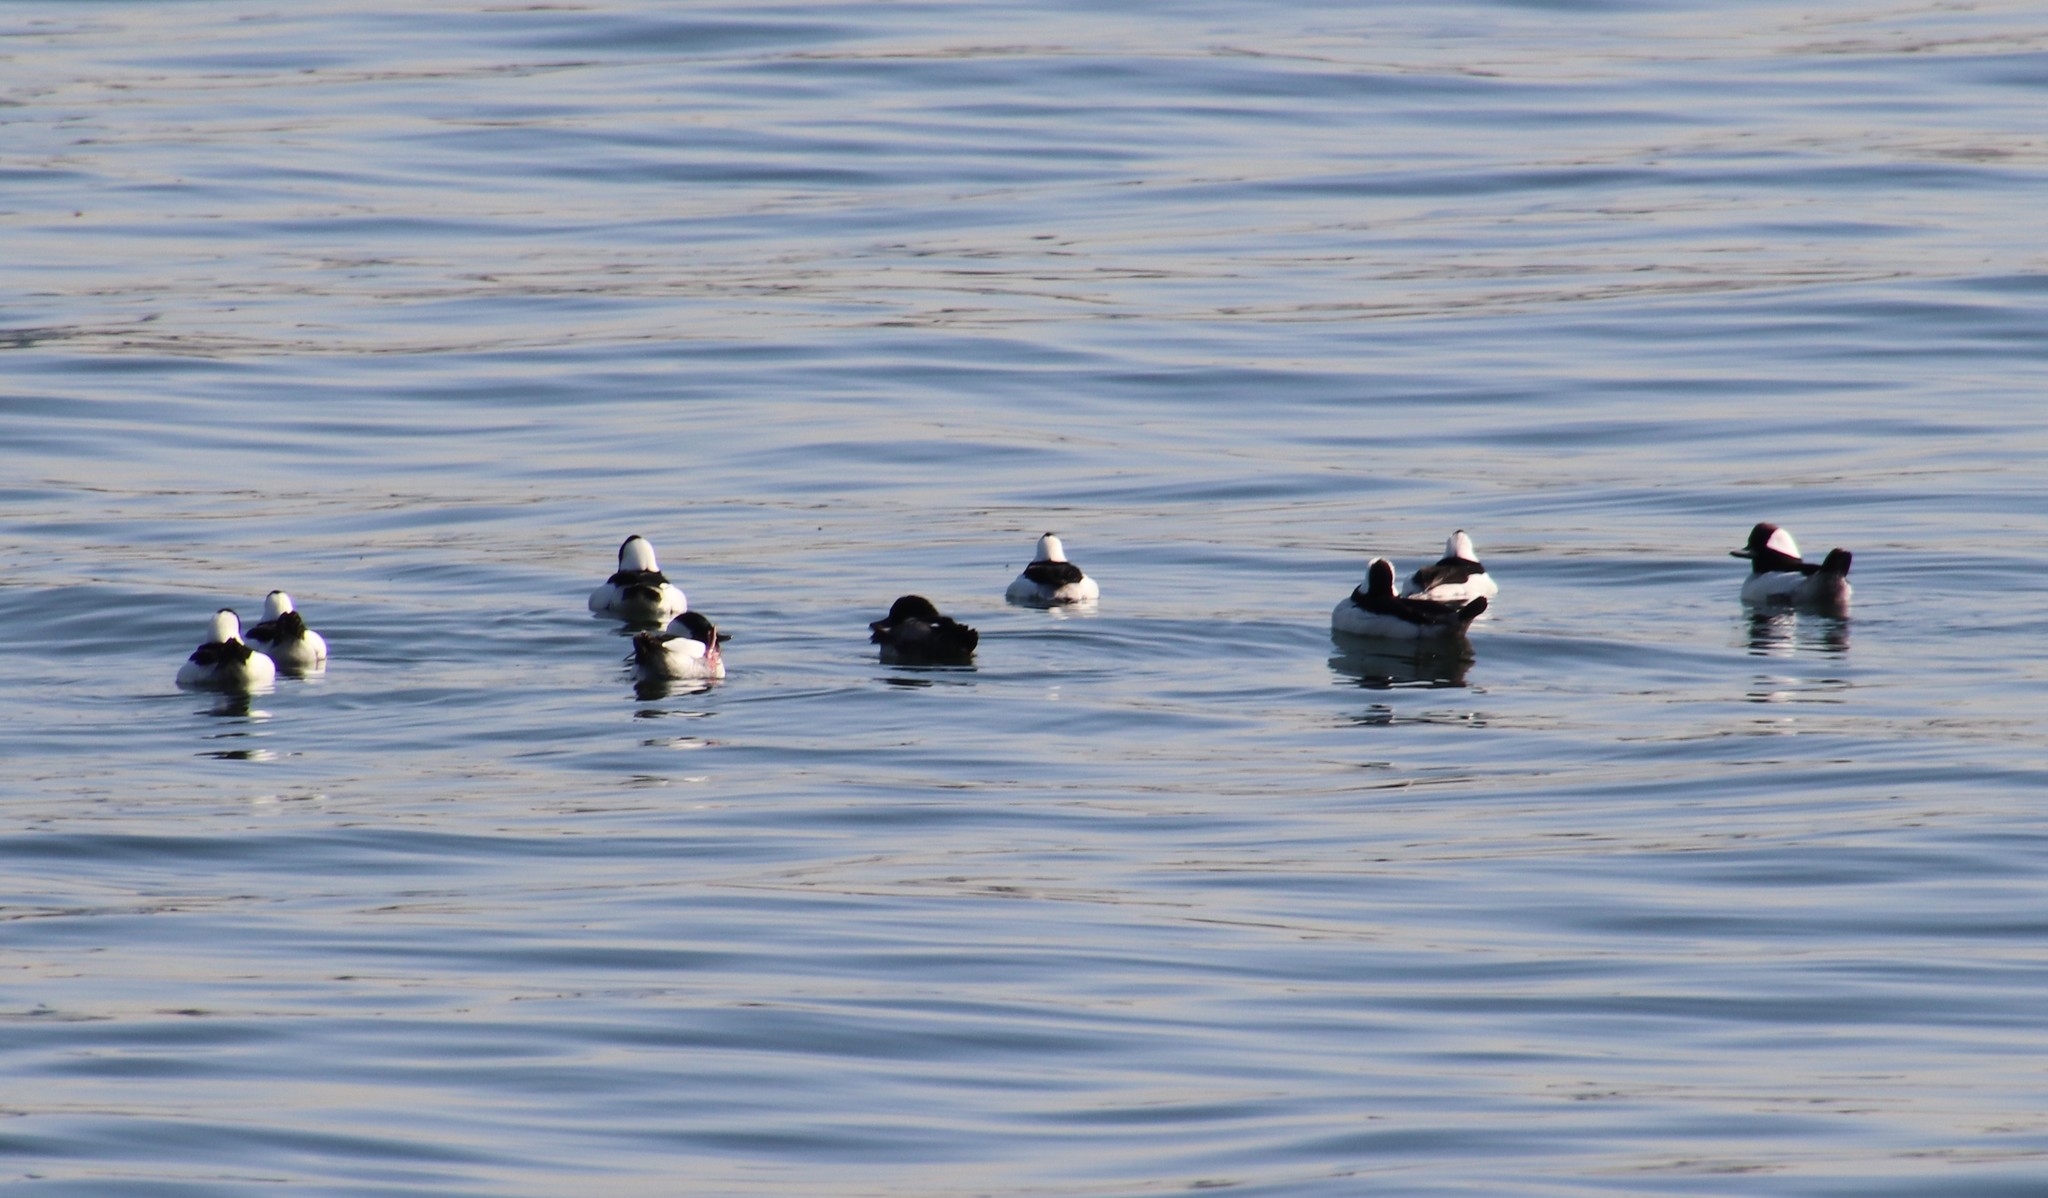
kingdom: Animalia
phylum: Chordata
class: Aves
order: Anseriformes
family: Anatidae
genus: Bucephala
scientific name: Bucephala albeola
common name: Bufflehead
